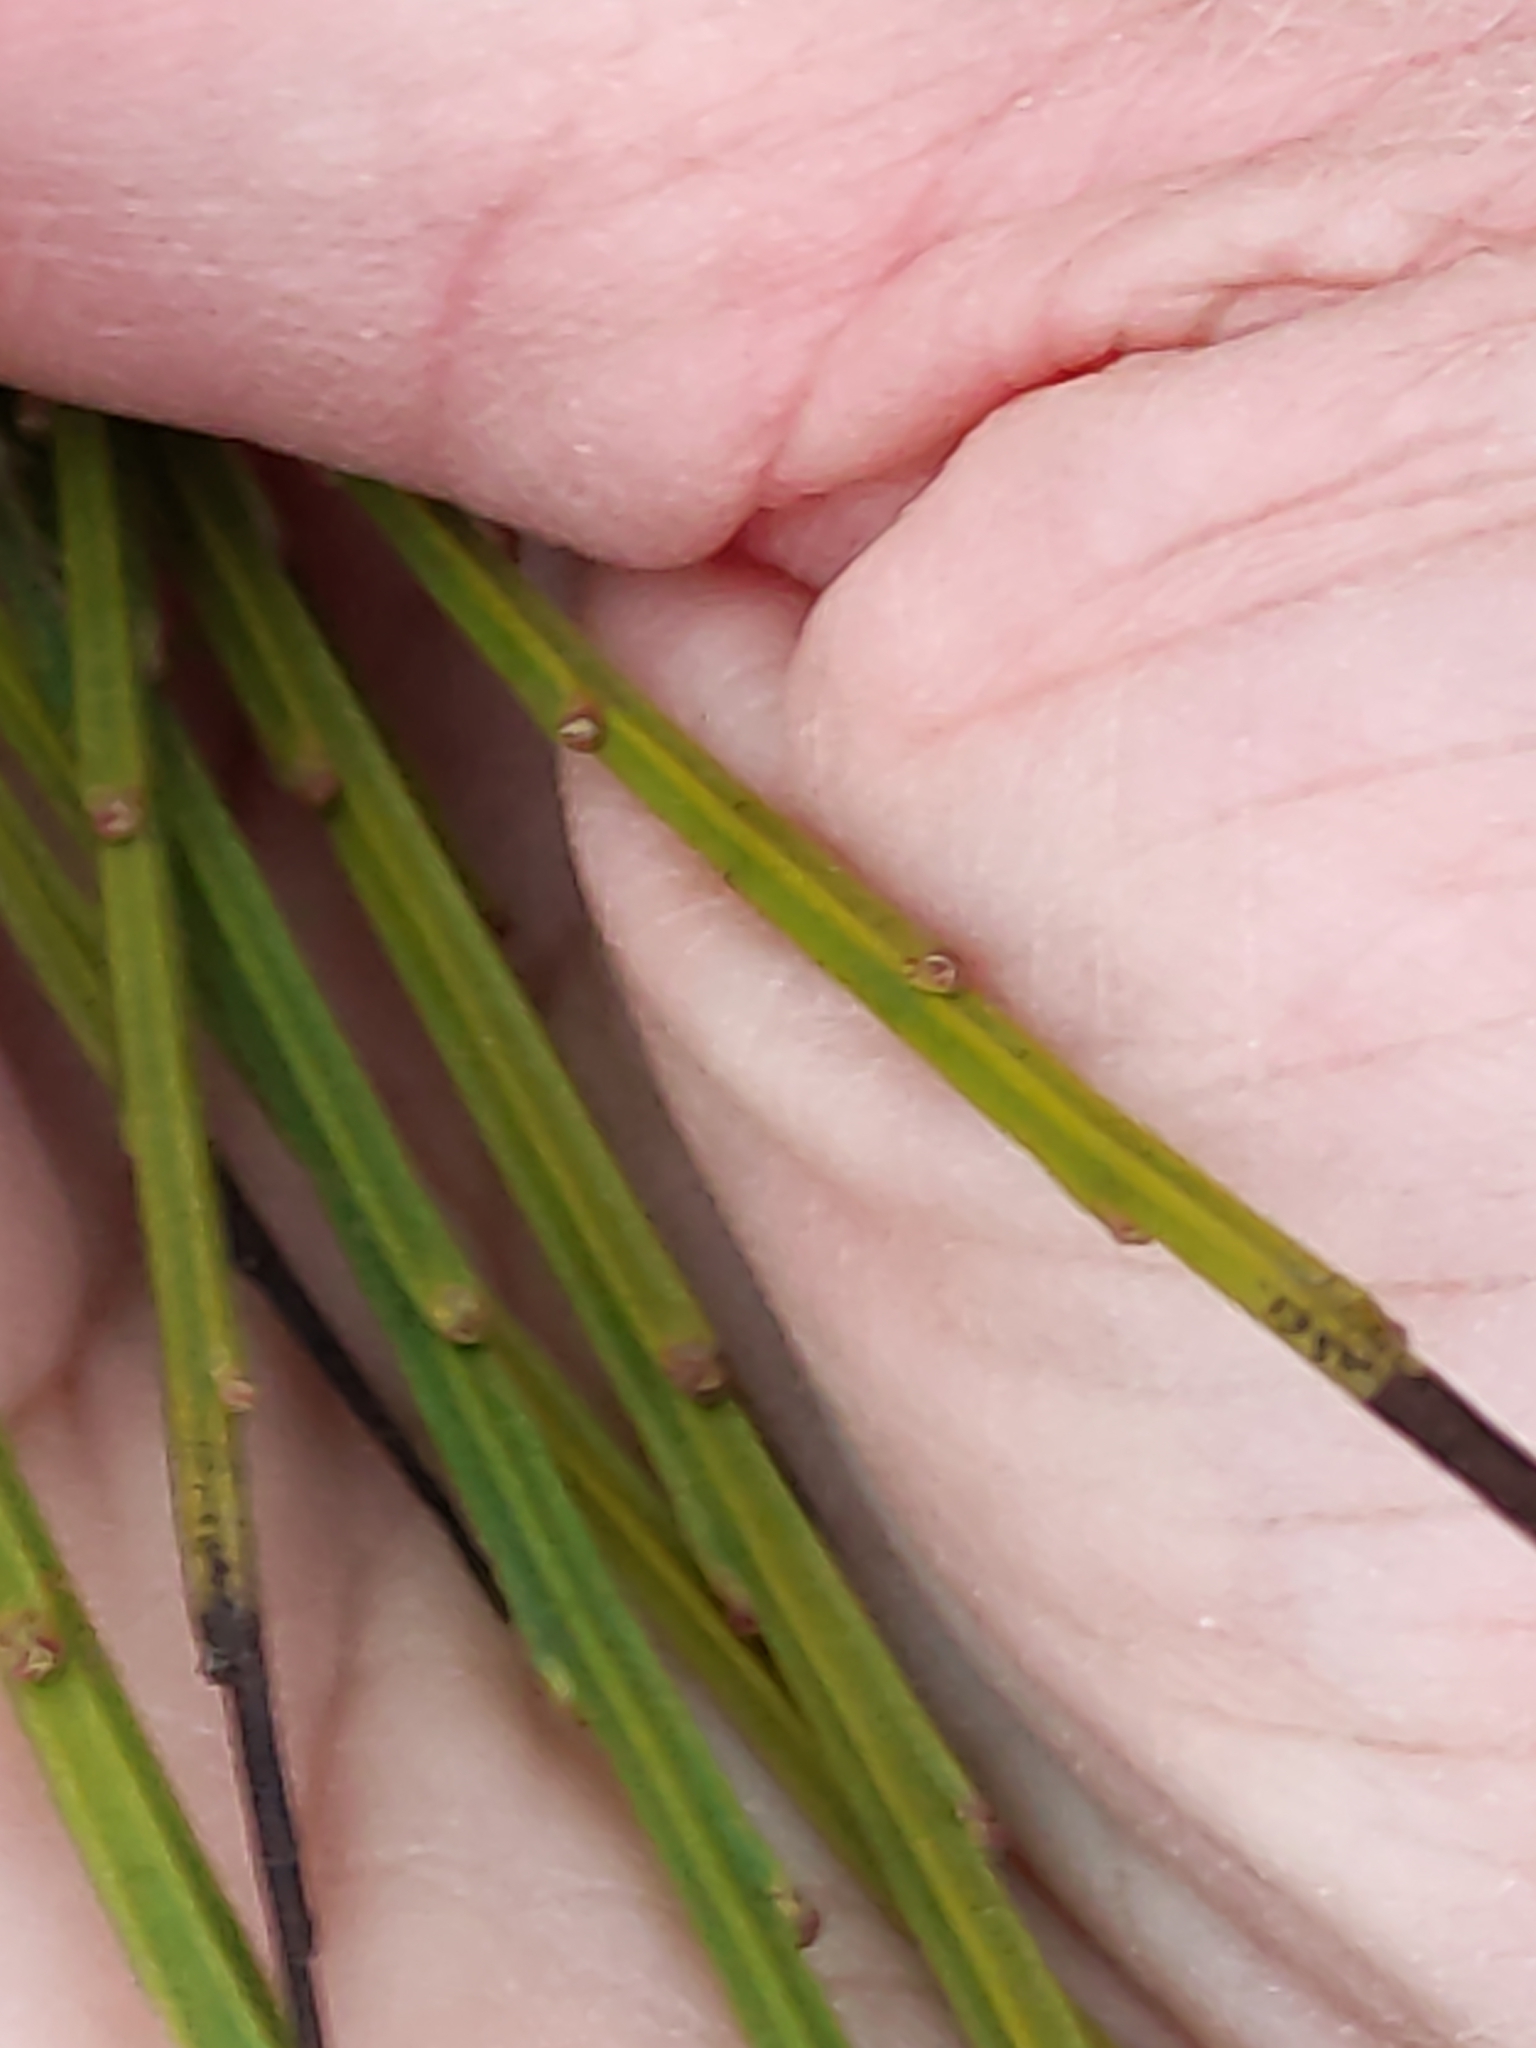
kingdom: Plantae
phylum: Tracheophyta
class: Magnoliopsida
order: Fabales
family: Fabaceae
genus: Cytisus
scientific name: Cytisus scoparius
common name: Scotch broom
